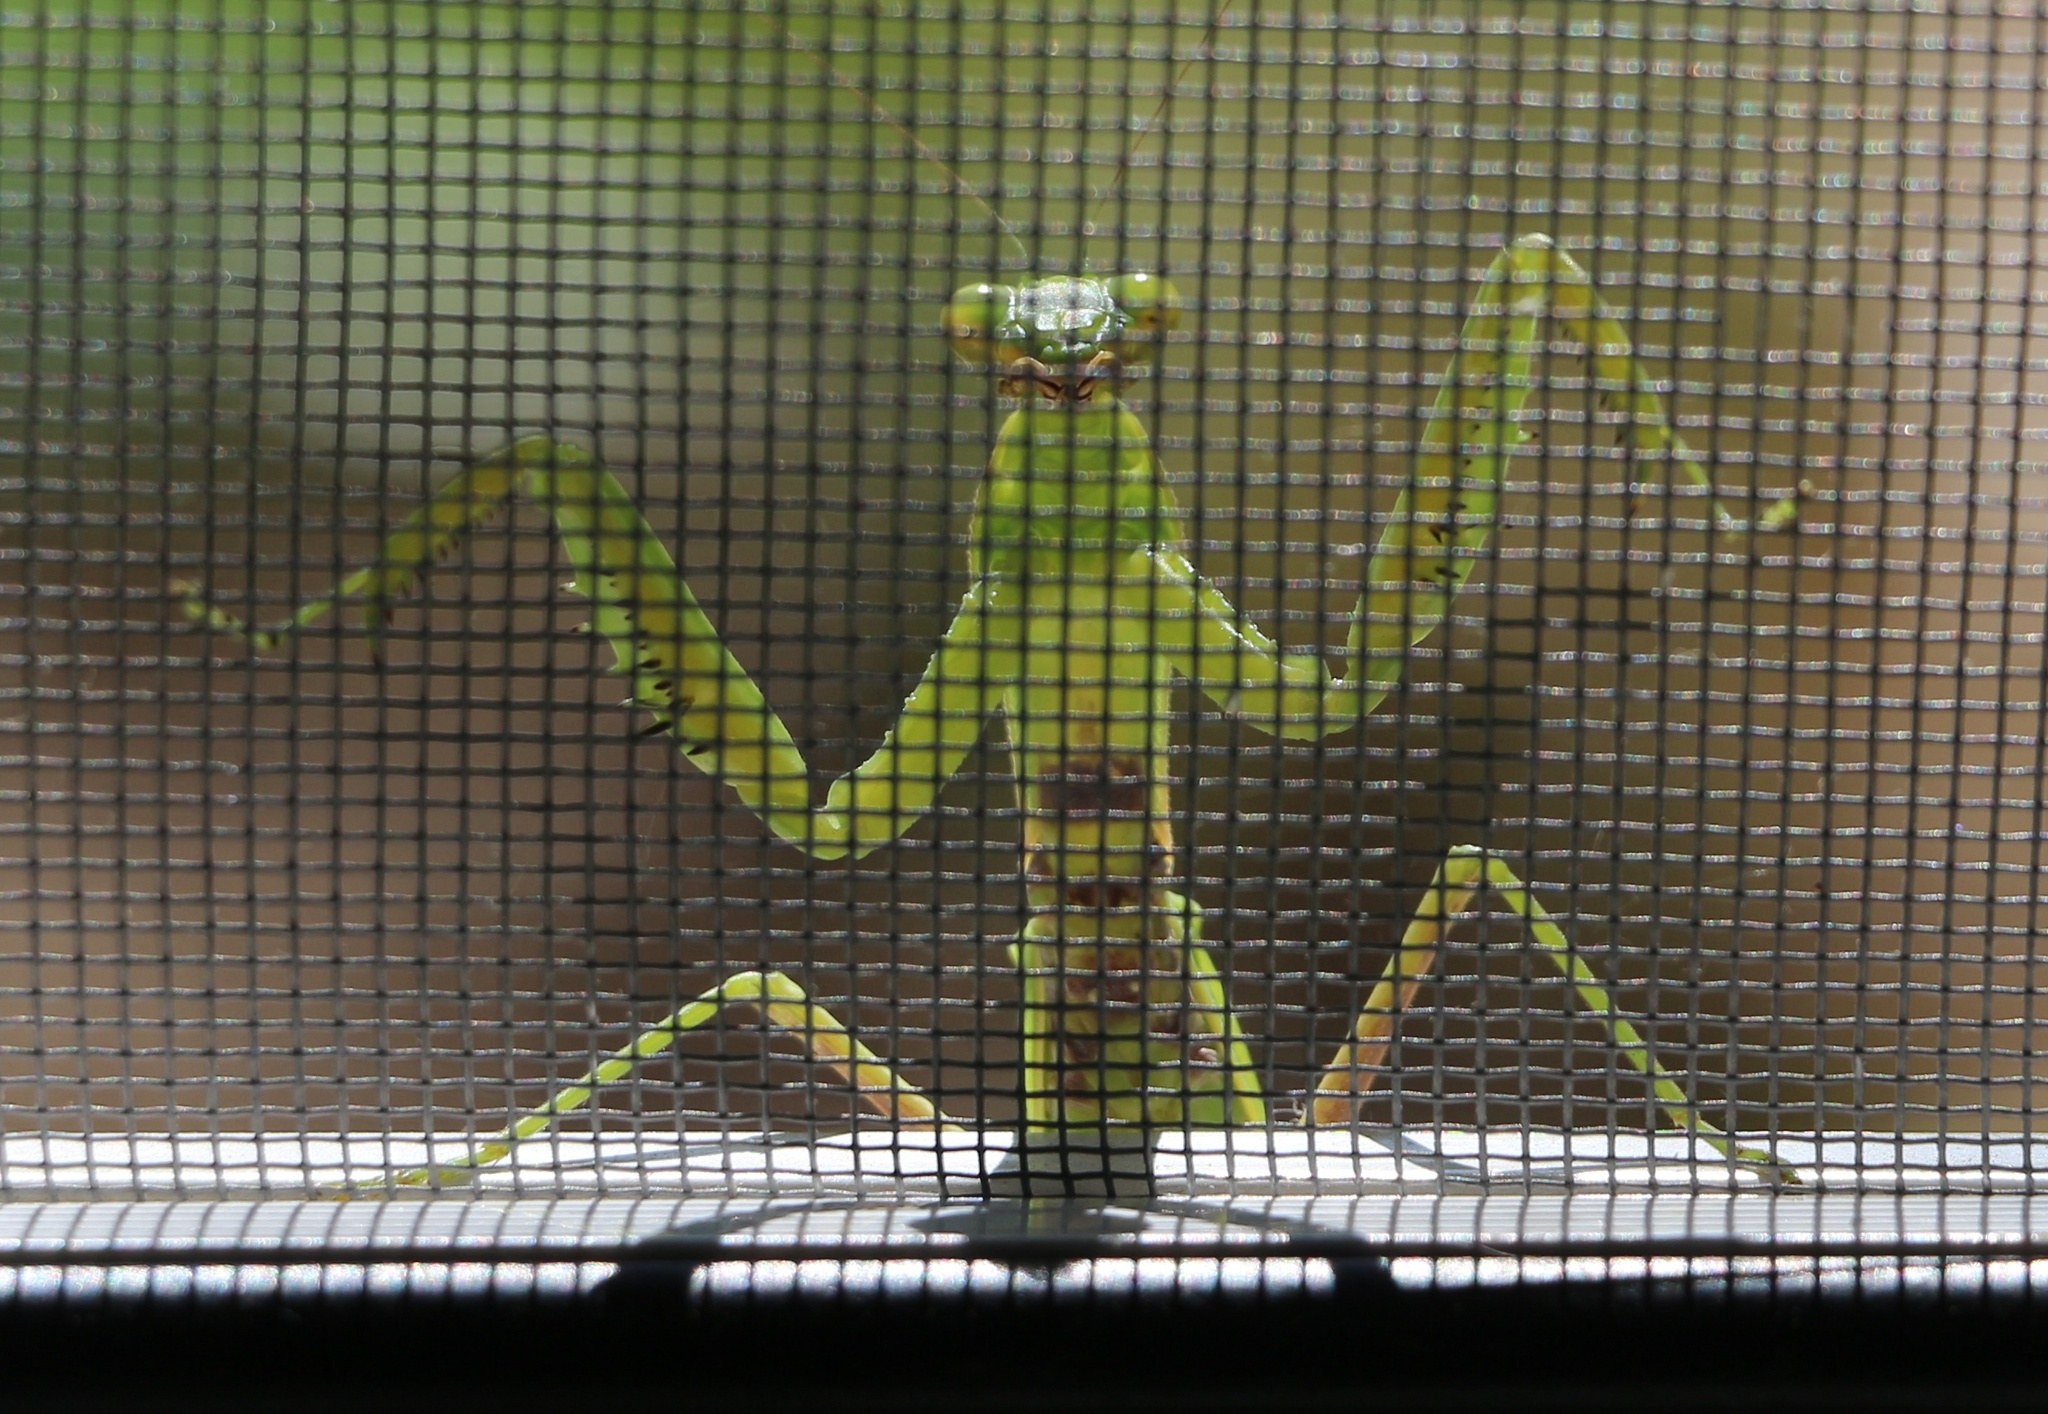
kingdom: Animalia
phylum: Arthropoda
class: Insecta
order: Mantodea
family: Mantidae
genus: Hierodula
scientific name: Hierodula transcaucasica
